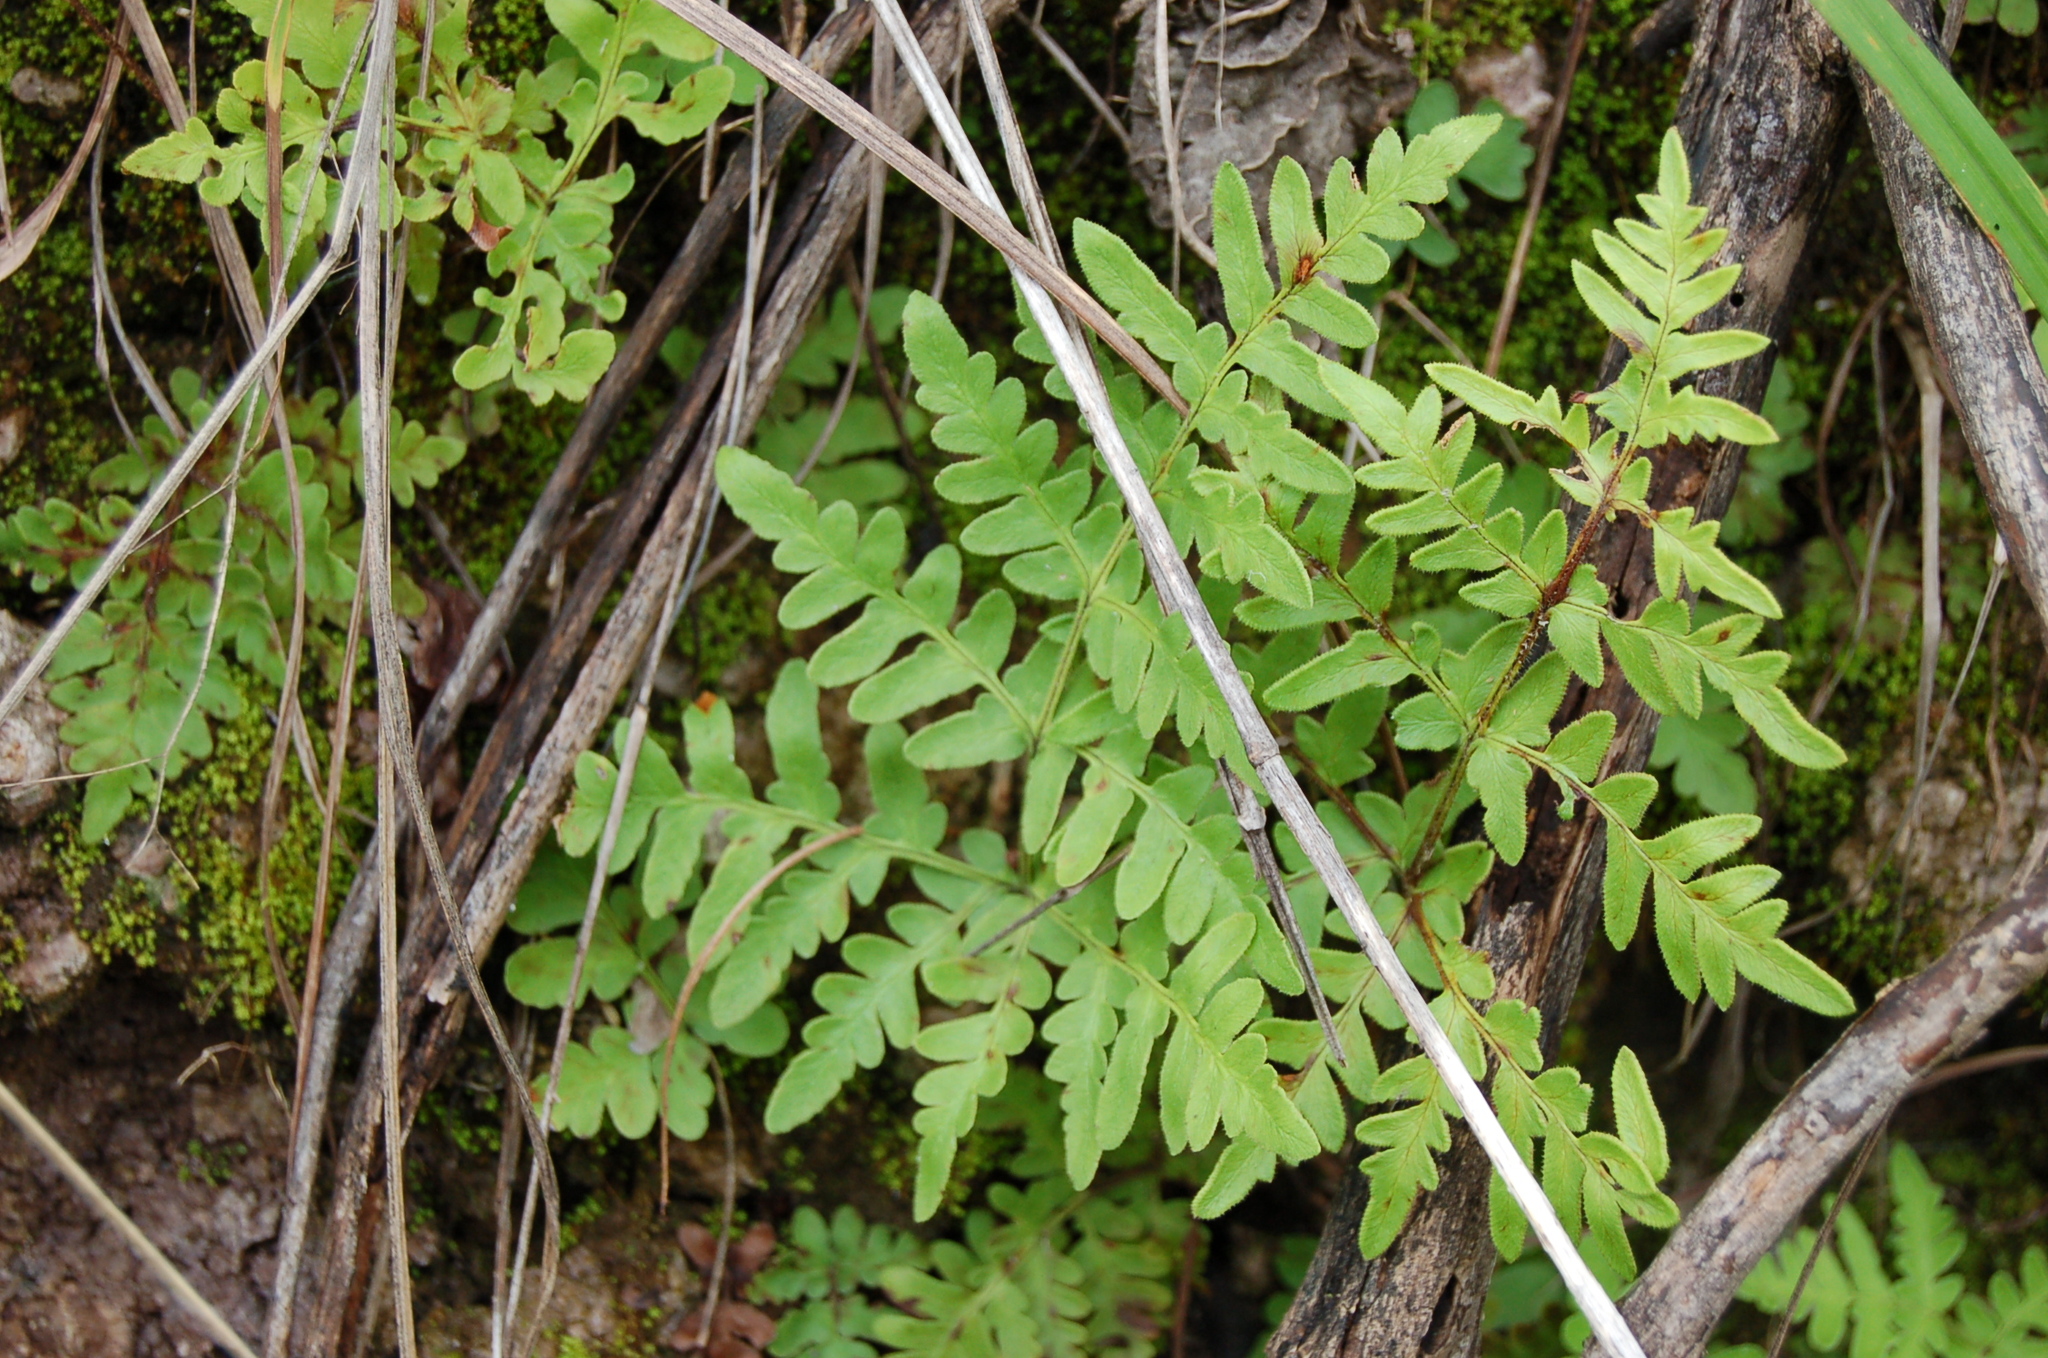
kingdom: Plantae
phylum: Tracheophyta
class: Polypodiopsida
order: Polypodiales
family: Pteridaceae
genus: Cheiloplecton
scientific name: Cheiloplecton rigidum
